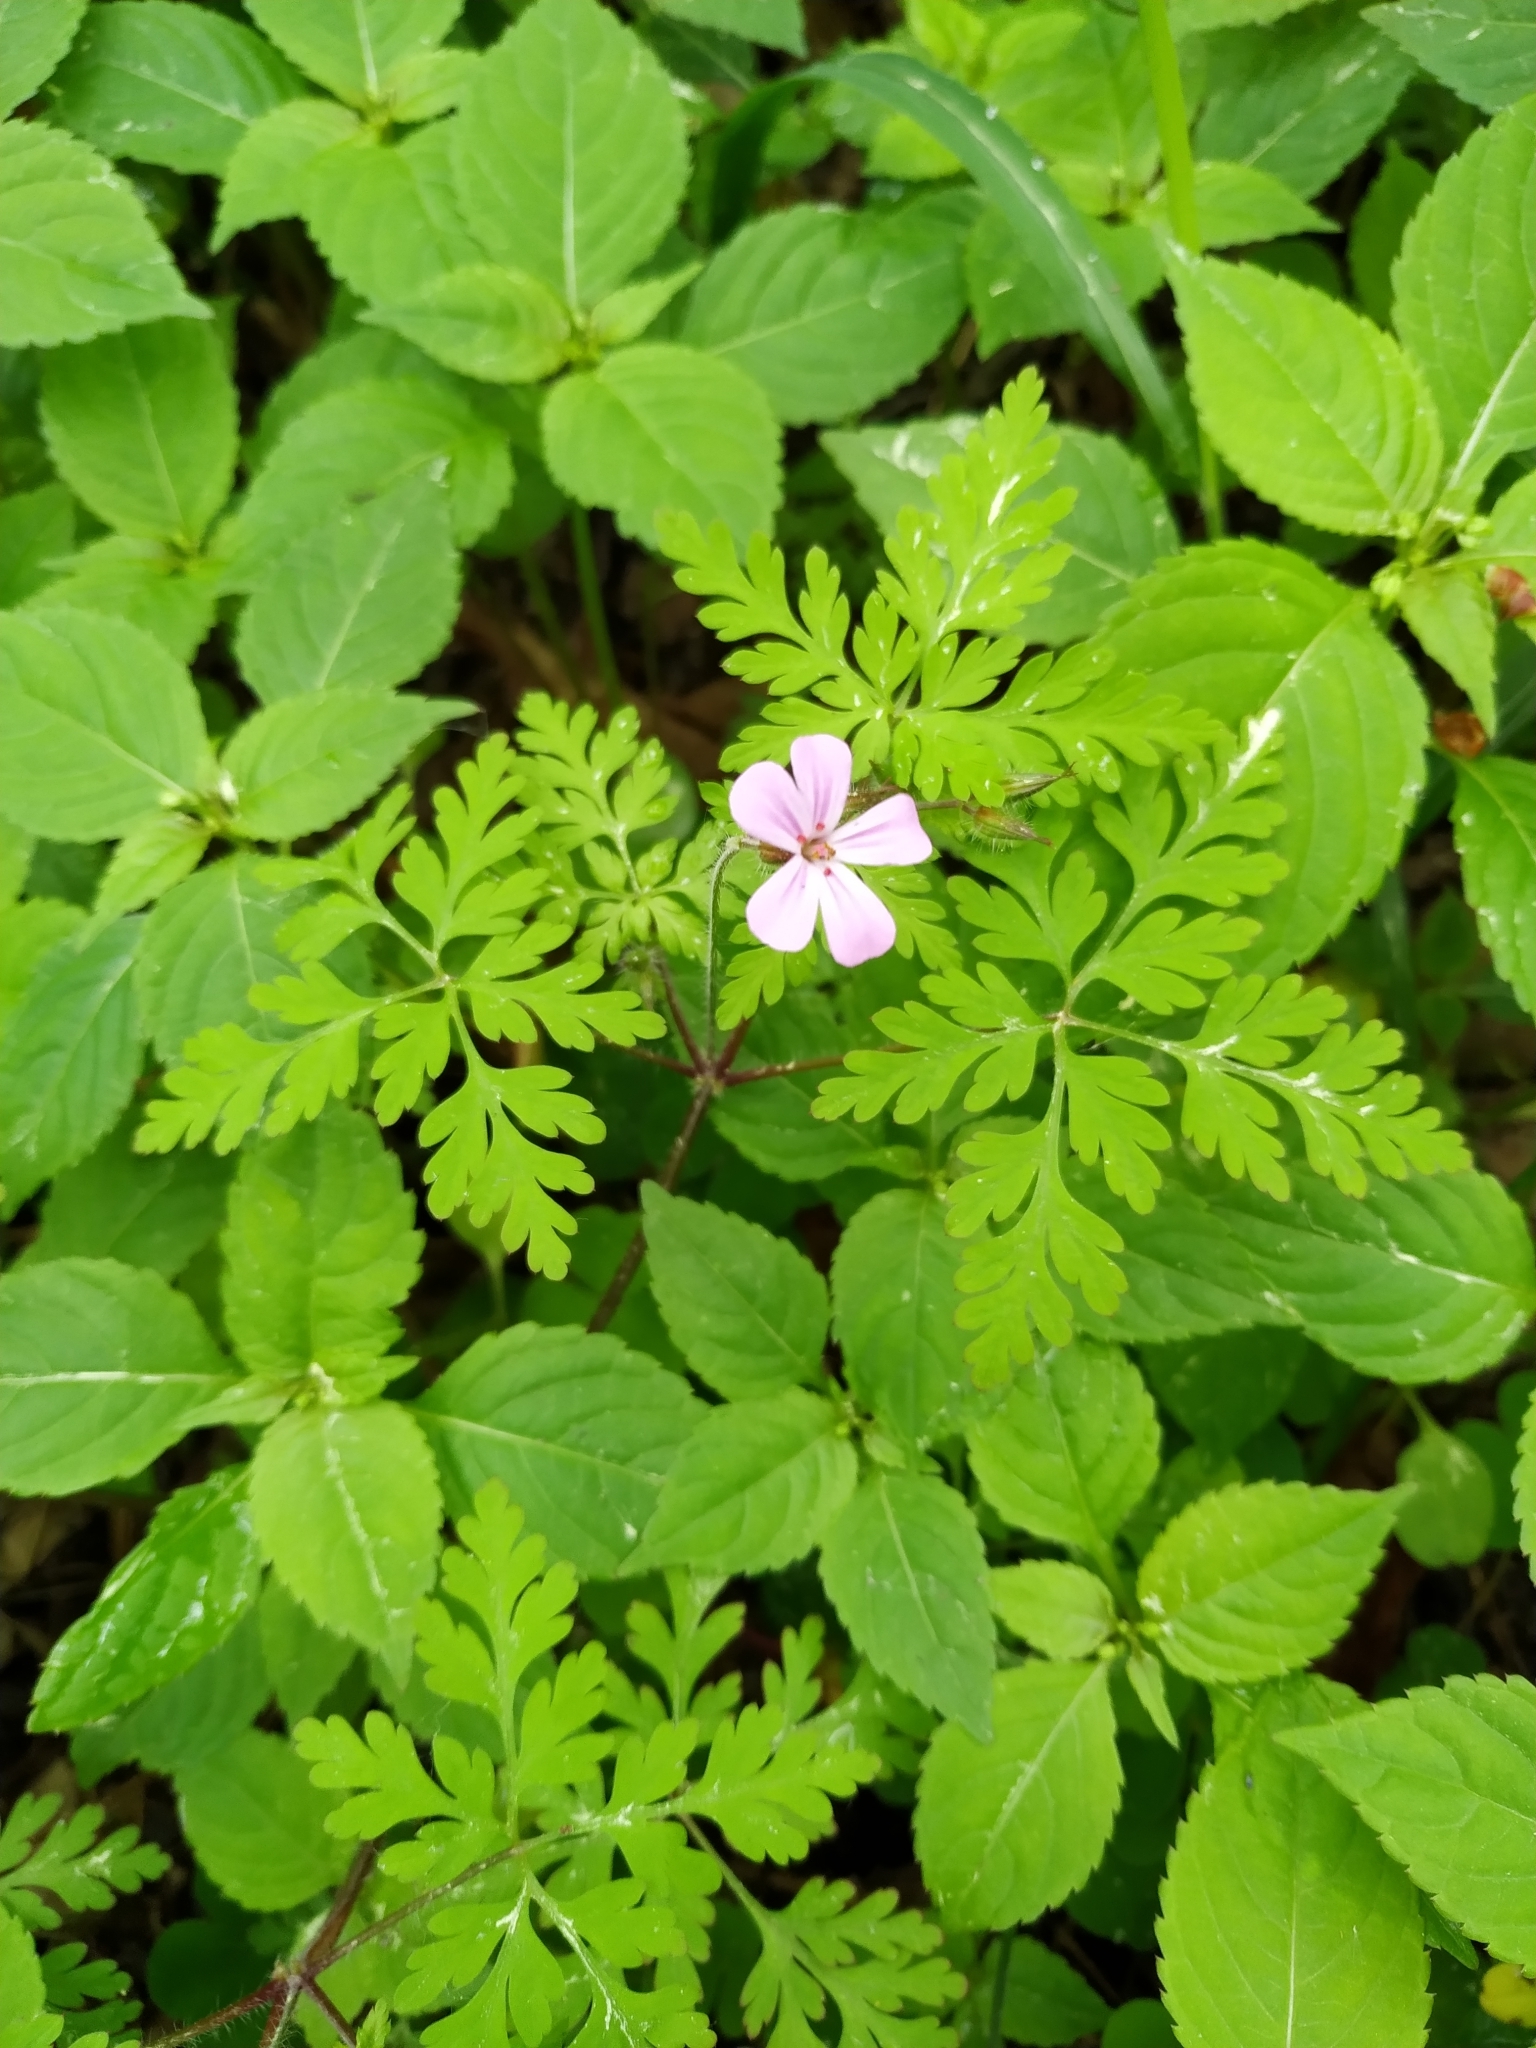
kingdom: Plantae
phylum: Tracheophyta
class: Magnoliopsida
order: Geraniales
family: Geraniaceae
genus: Geranium
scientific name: Geranium robertianum
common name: Herb-robert
